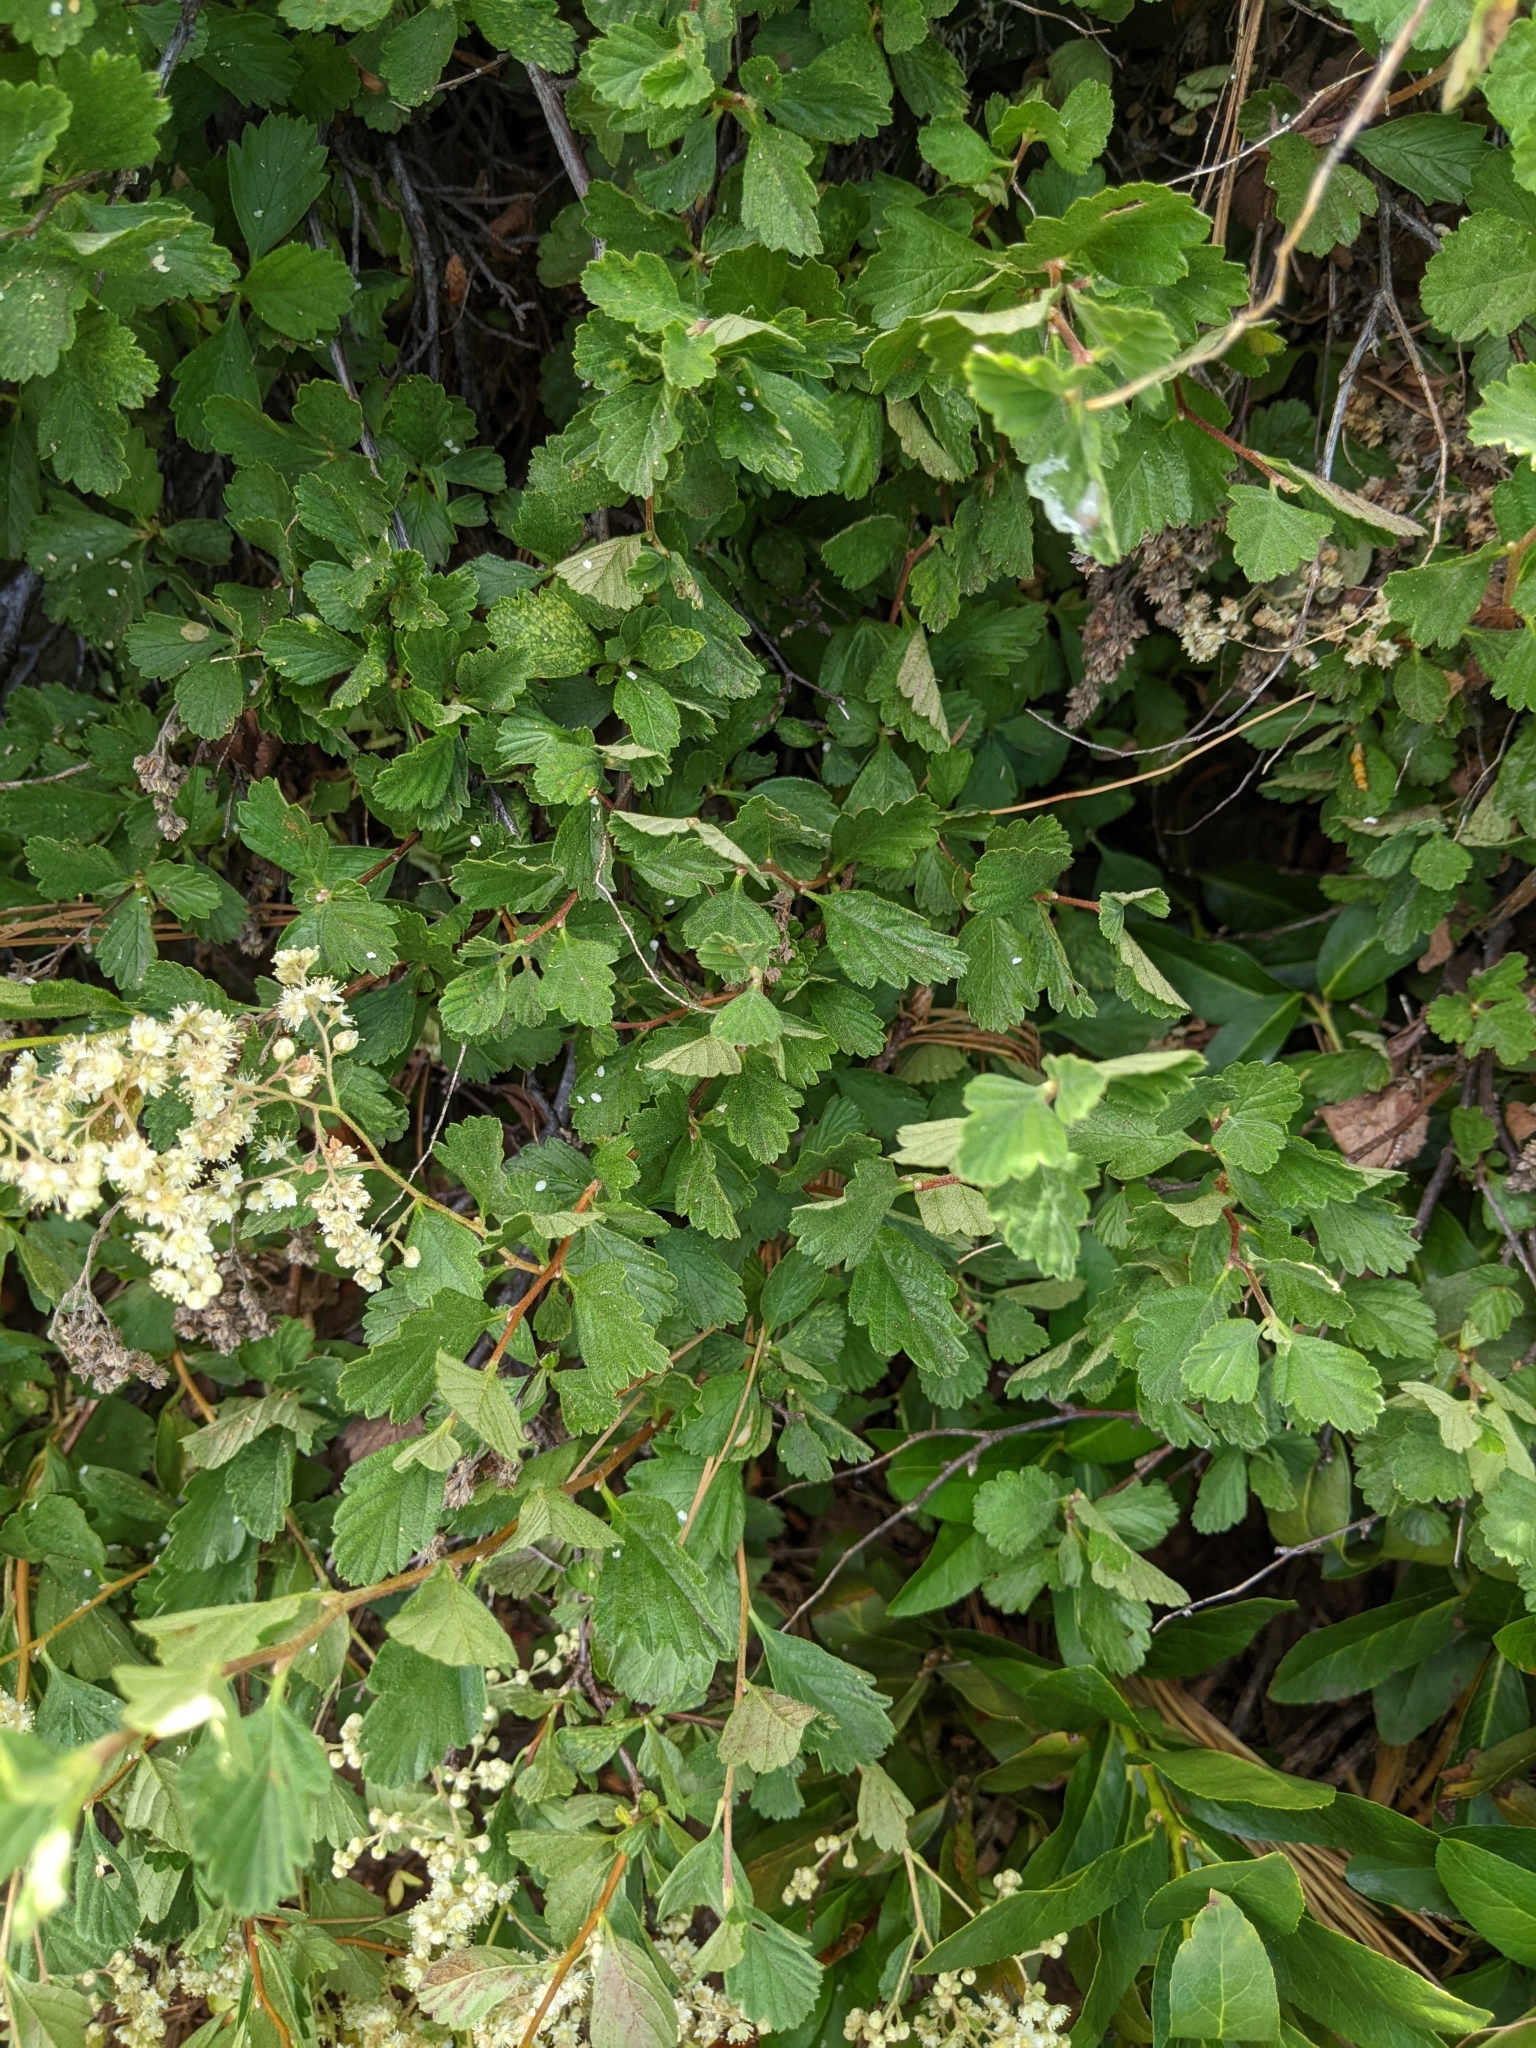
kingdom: Plantae
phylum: Tracheophyta
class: Magnoliopsida
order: Rosales
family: Rosaceae
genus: Holodiscus
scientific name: Holodiscus discolor
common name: Oceanspray
